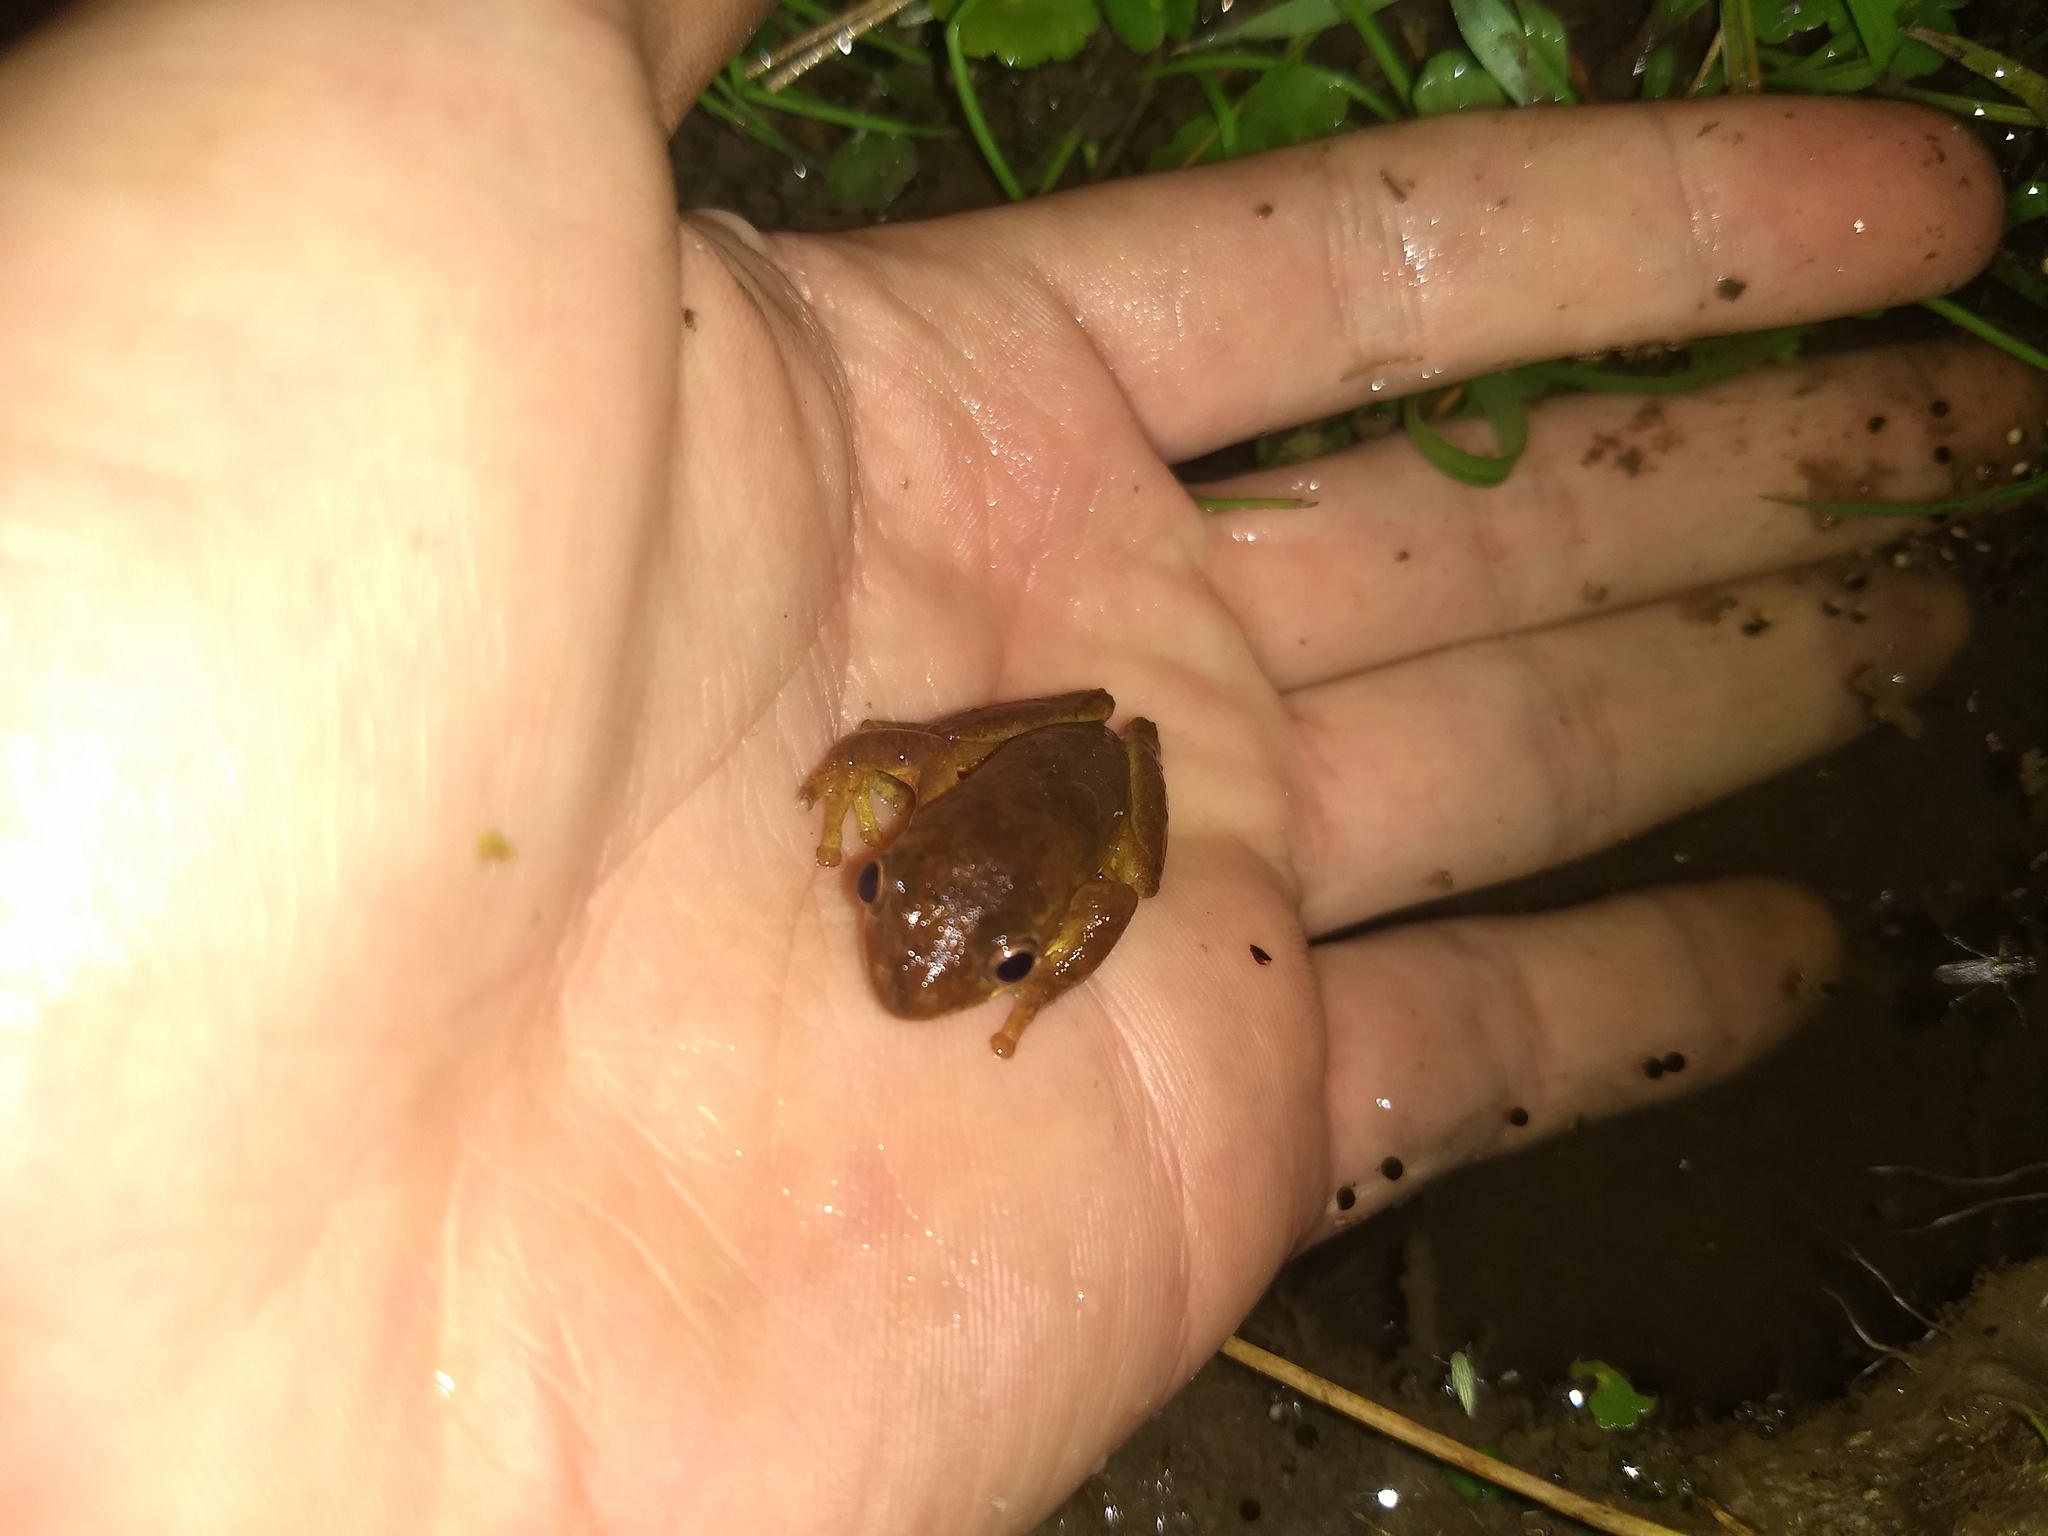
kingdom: Animalia
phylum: Chordata
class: Amphibia
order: Anura
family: Hylidae
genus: Dendropsophus
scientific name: Dendropsophus bogerti
